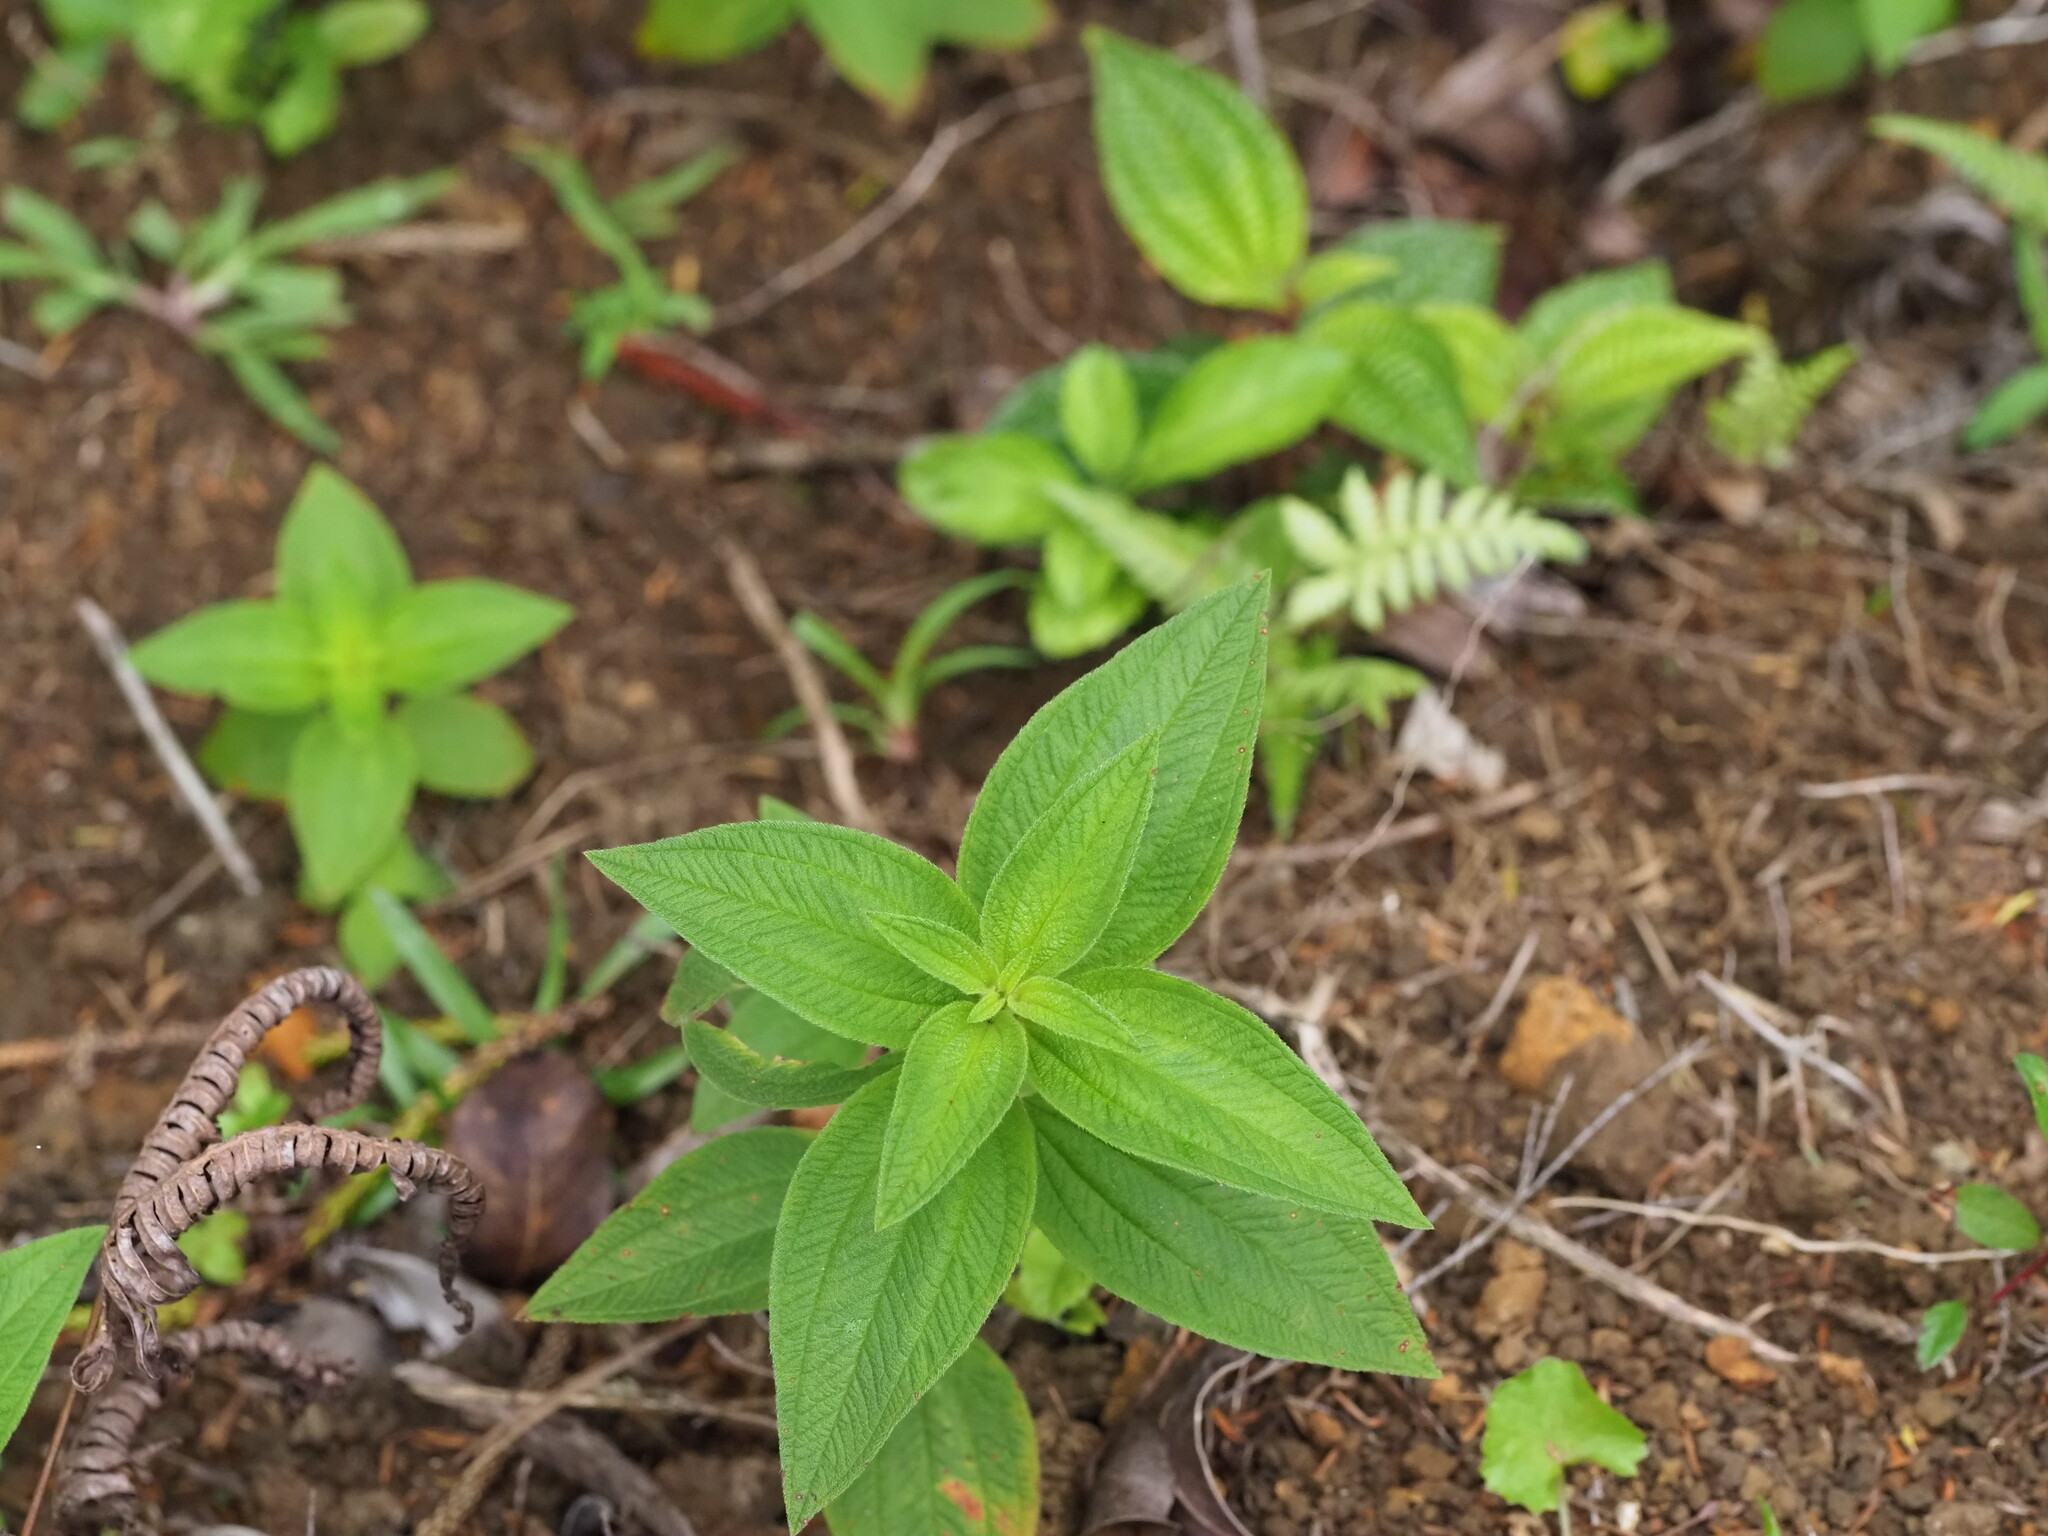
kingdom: Plantae
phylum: Tracheophyta
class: Magnoliopsida
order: Myrtales
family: Melastomataceae
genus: Pleroma
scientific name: Pleroma urvilleanum
